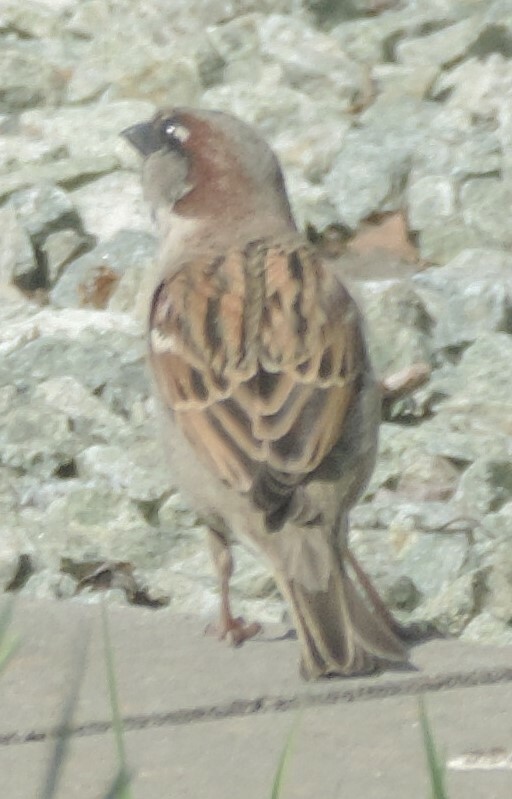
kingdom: Animalia
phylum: Chordata
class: Aves
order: Passeriformes
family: Passeridae
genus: Passer
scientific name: Passer domesticus
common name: House sparrow
